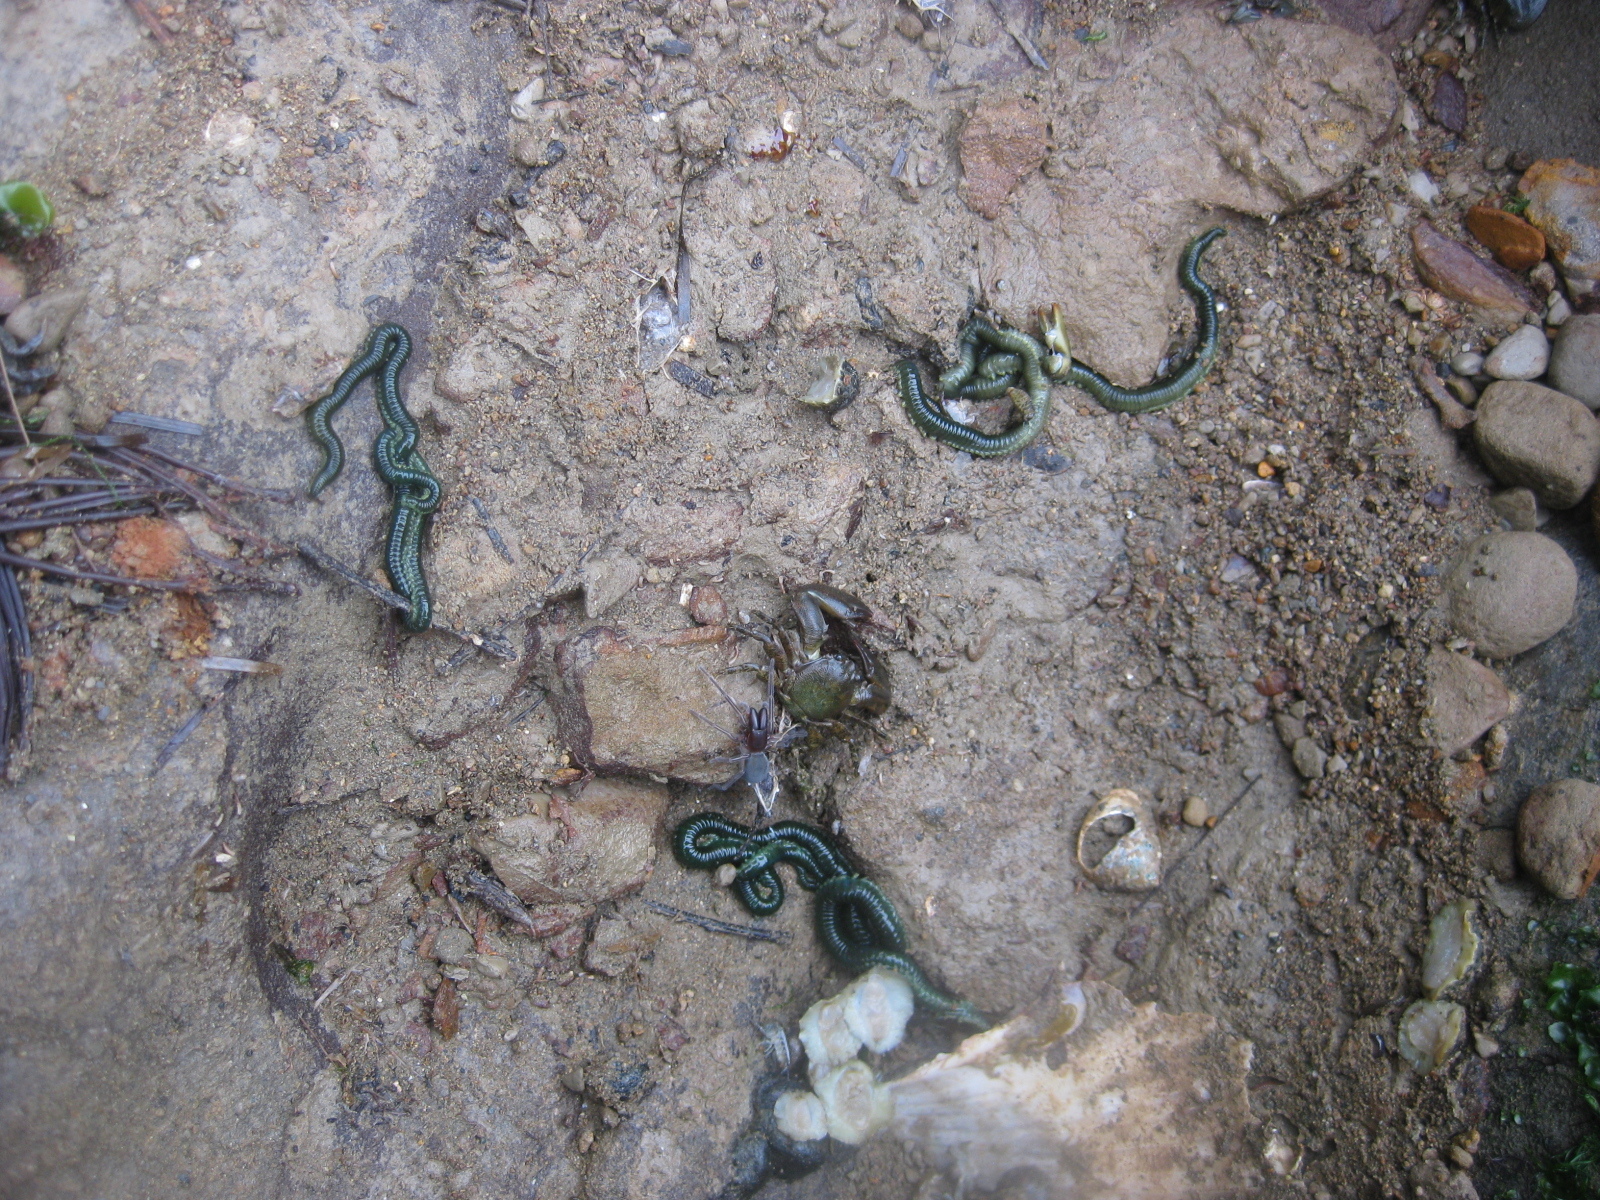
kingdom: Animalia
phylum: Annelida
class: Polychaeta
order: Phyllodocida
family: Phyllodocidae
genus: Eulalia
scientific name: Eulalia microphylla
